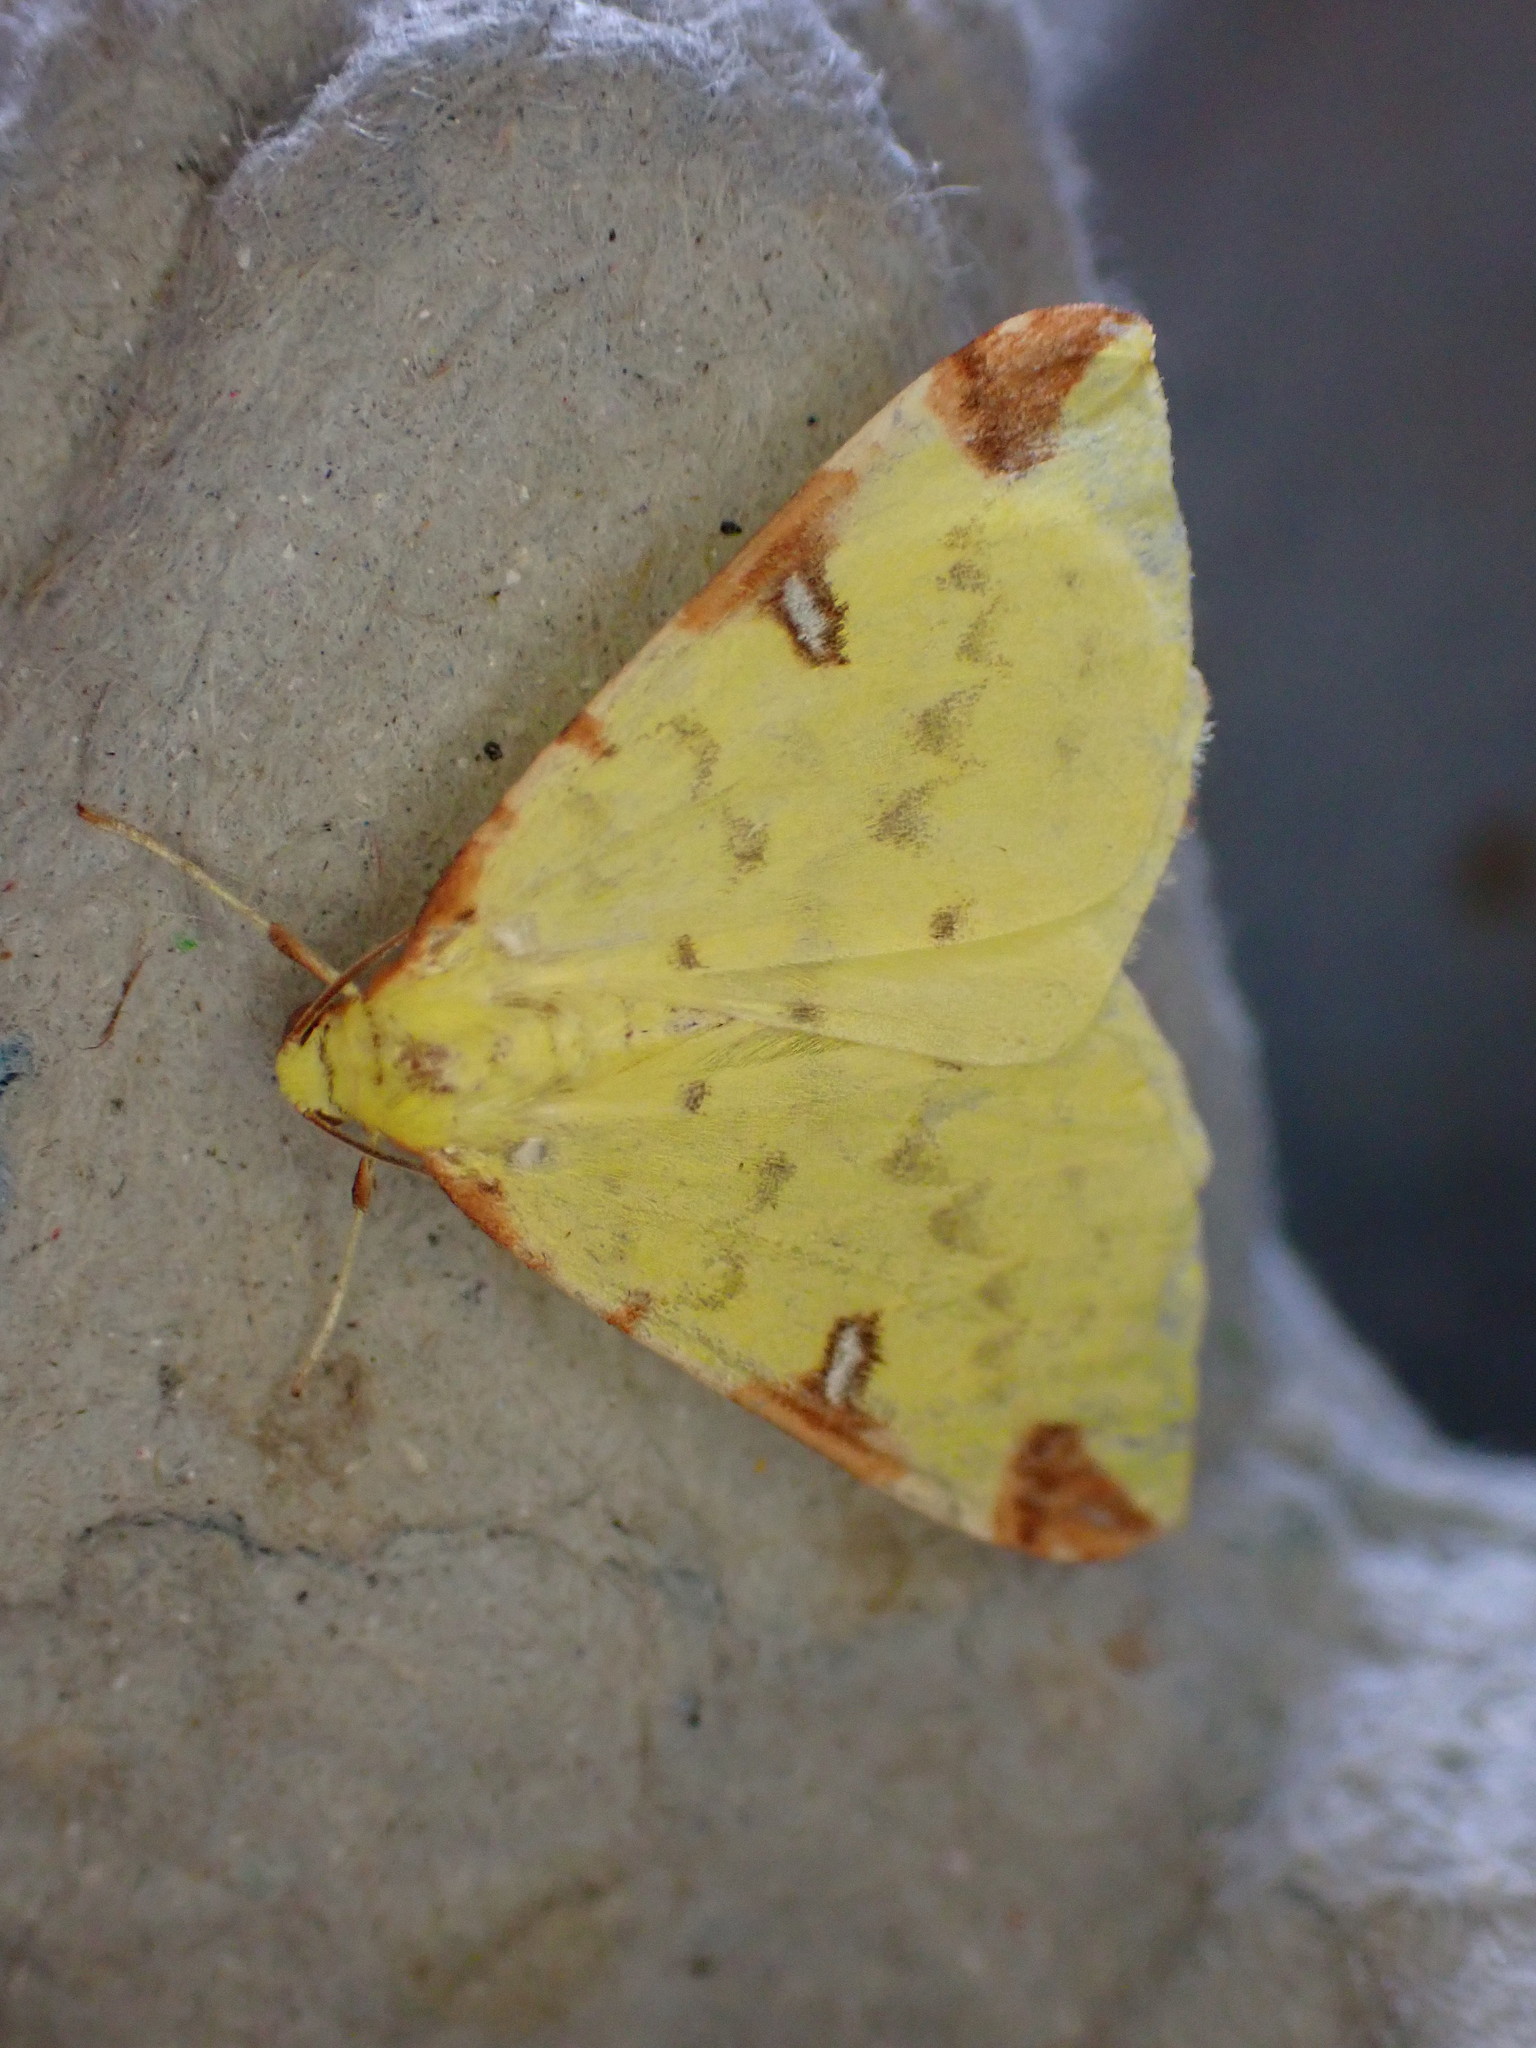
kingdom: Animalia
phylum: Arthropoda
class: Insecta
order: Lepidoptera
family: Geometridae
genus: Opisthograptis
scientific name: Opisthograptis luteolata
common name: Brimstone moth
